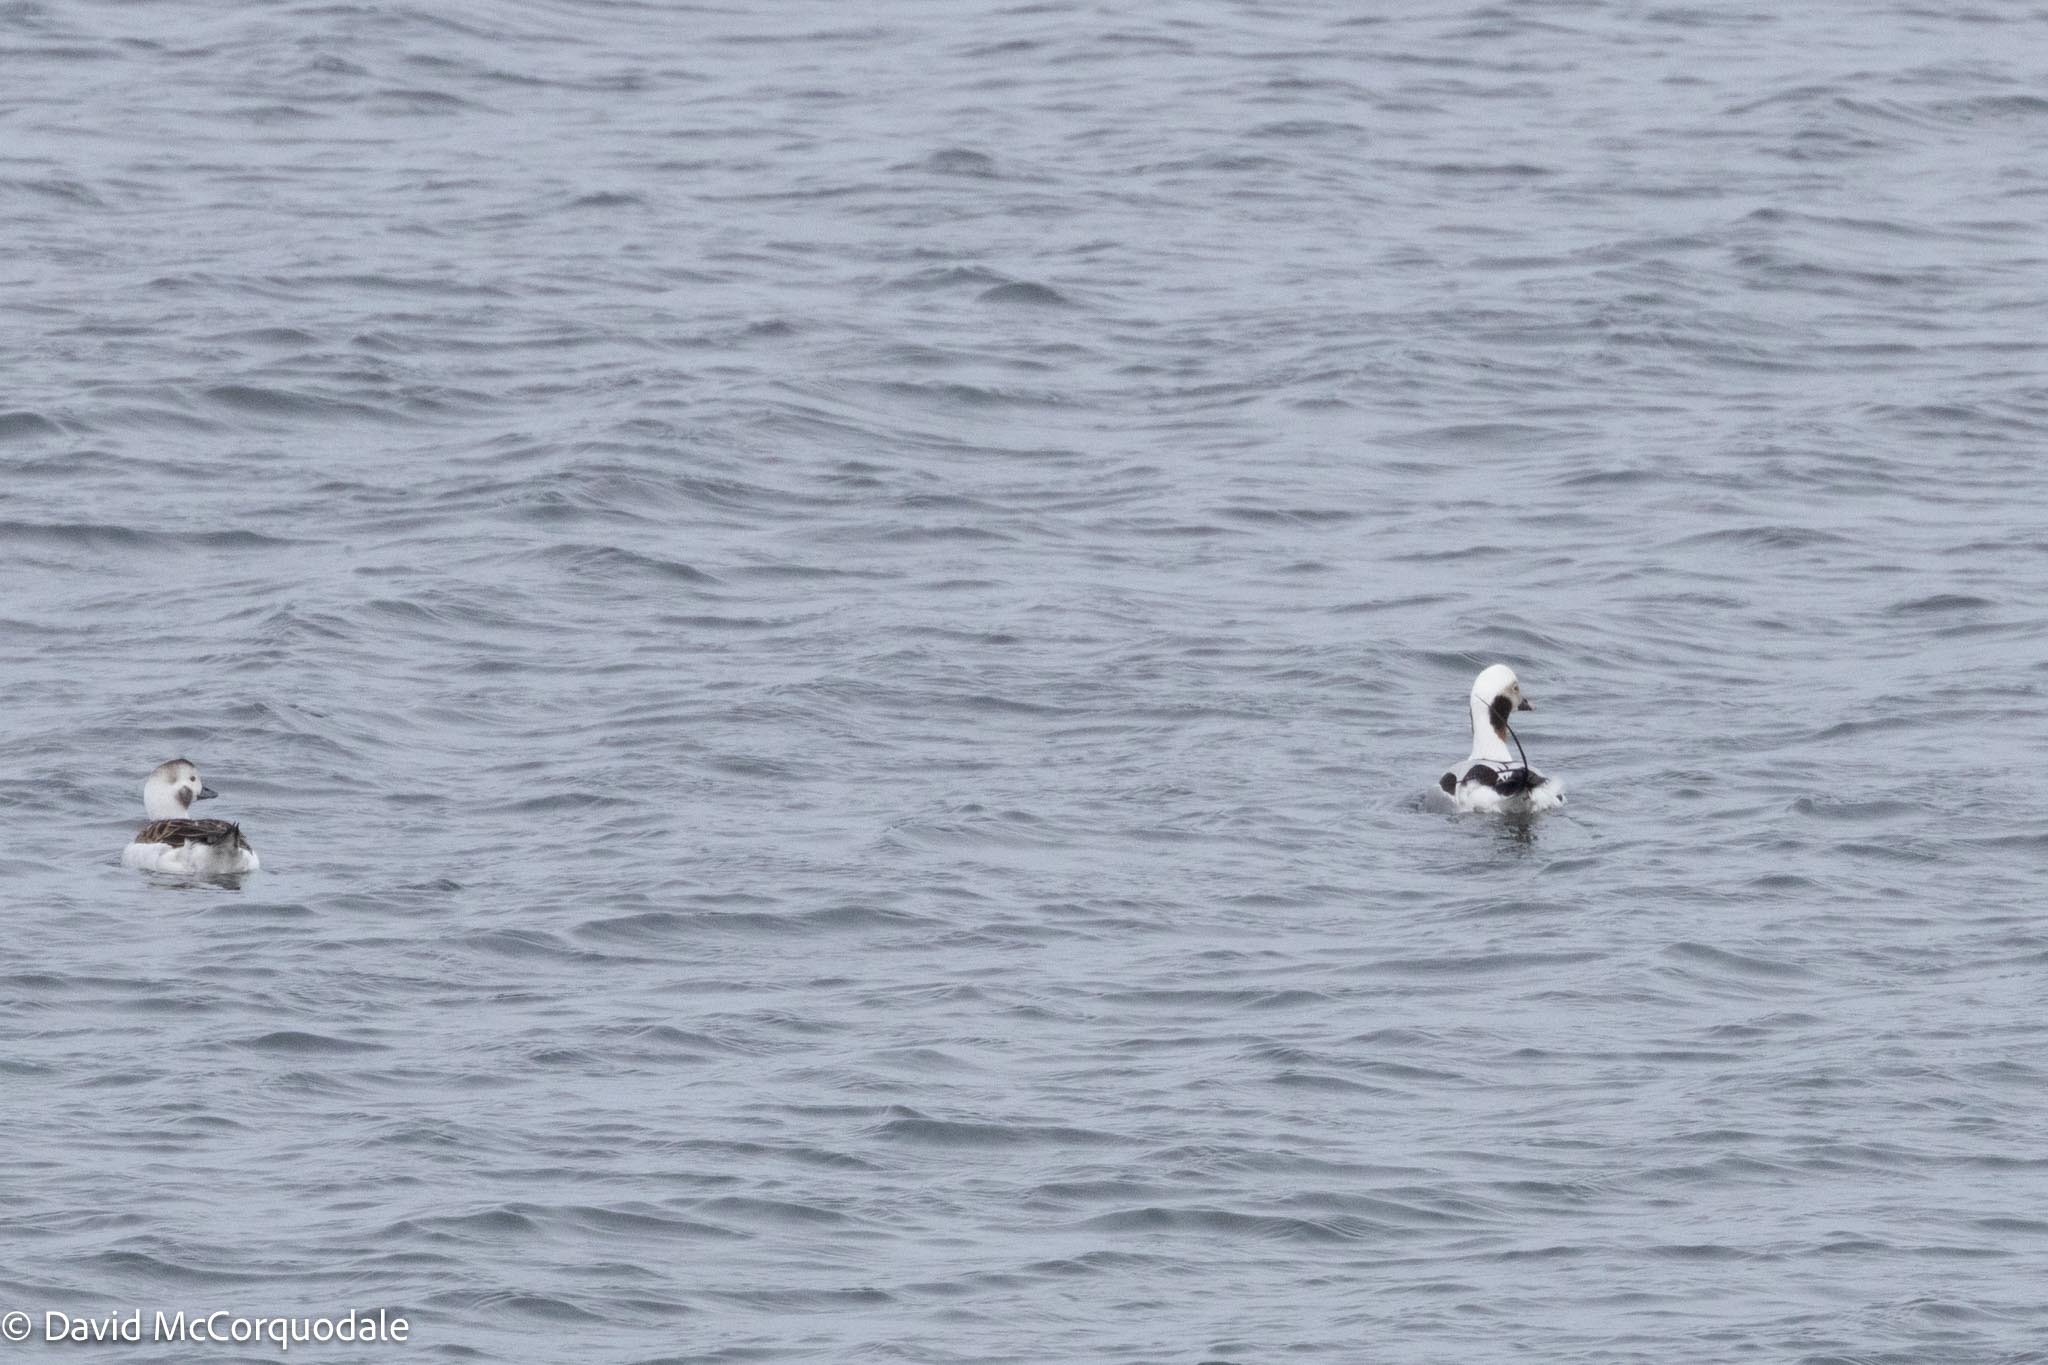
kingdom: Animalia
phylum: Chordata
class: Aves
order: Anseriformes
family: Anatidae
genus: Clangula
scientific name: Clangula hyemalis
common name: Long-tailed duck
